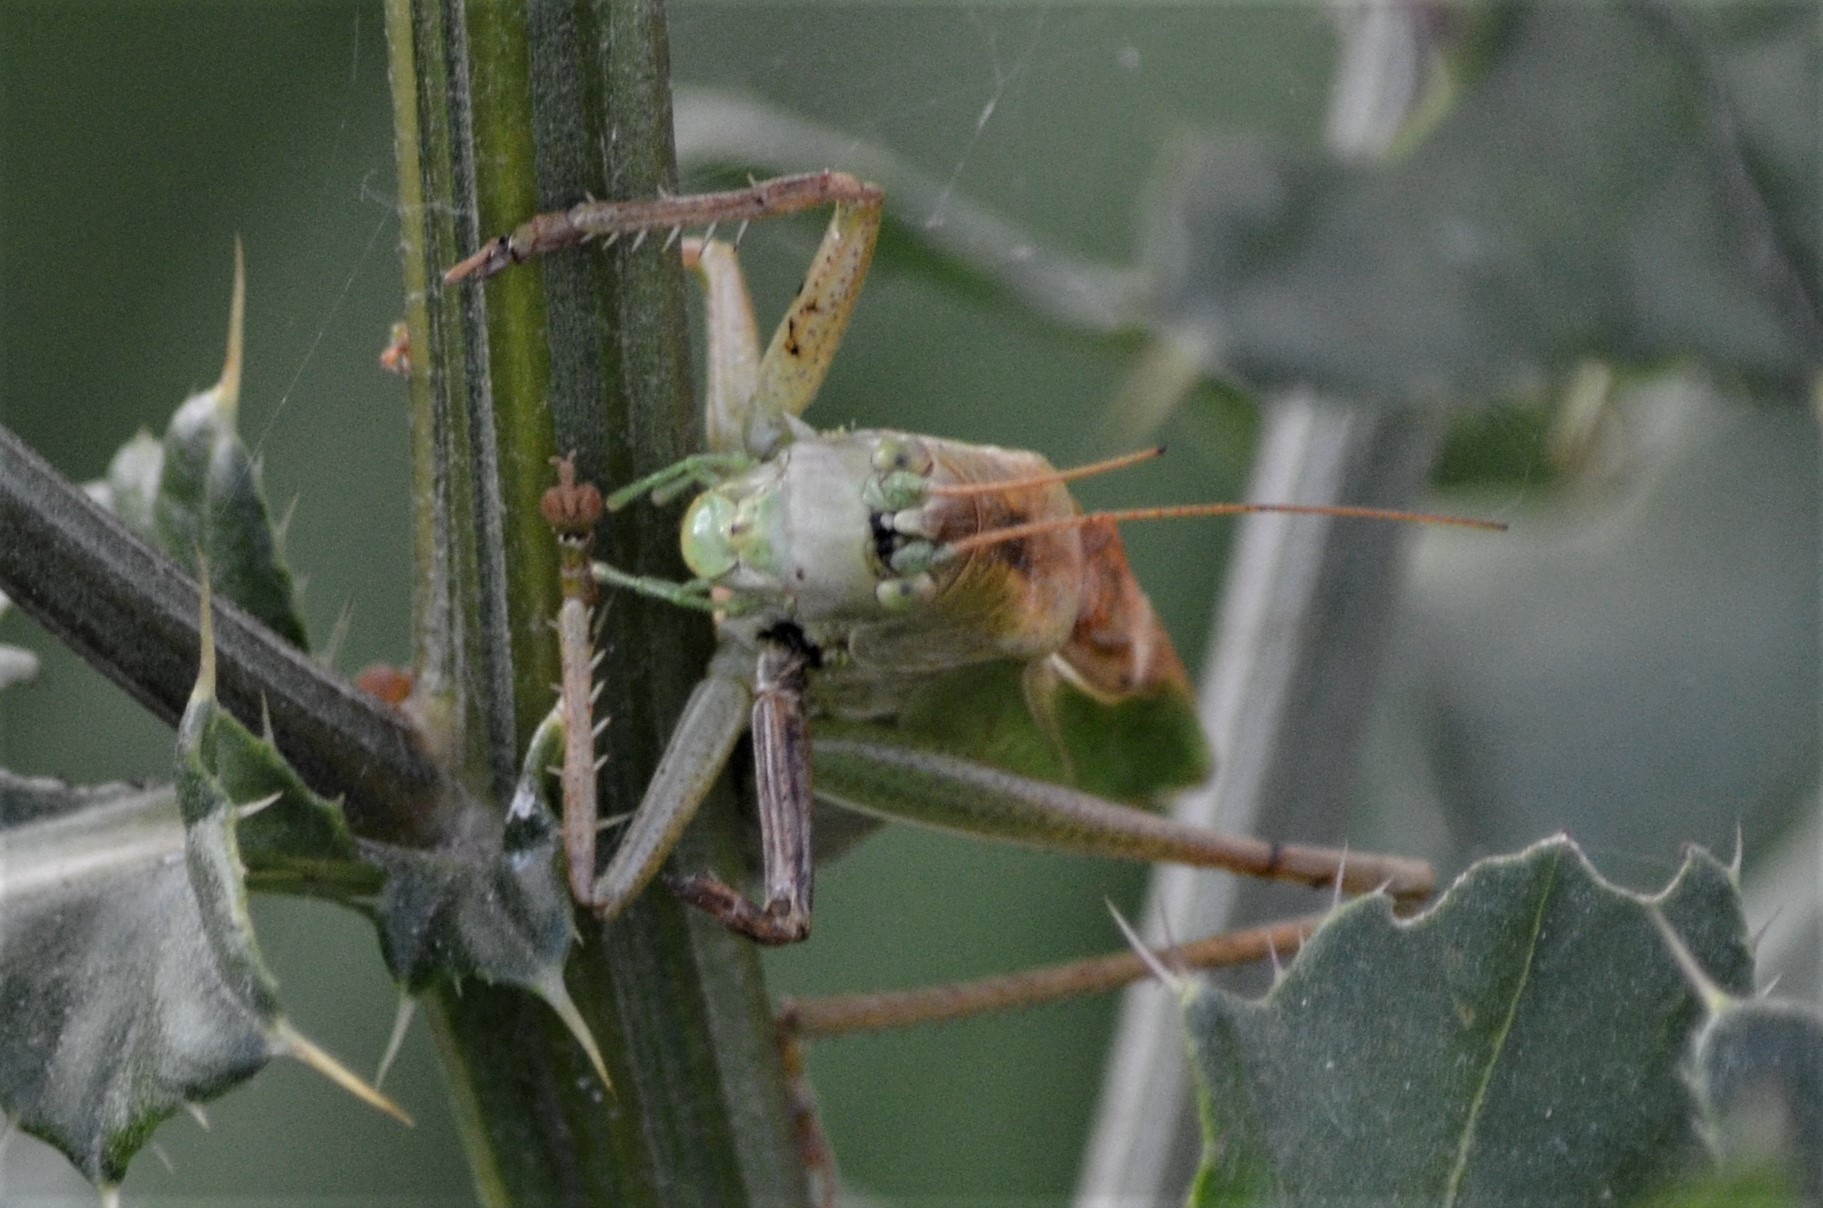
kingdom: Animalia
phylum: Arthropoda
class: Insecta
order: Orthoptera
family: Tettigoniidae
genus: Tettigonia
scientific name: Tettigonia cantans
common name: Upland green bush-cricket
